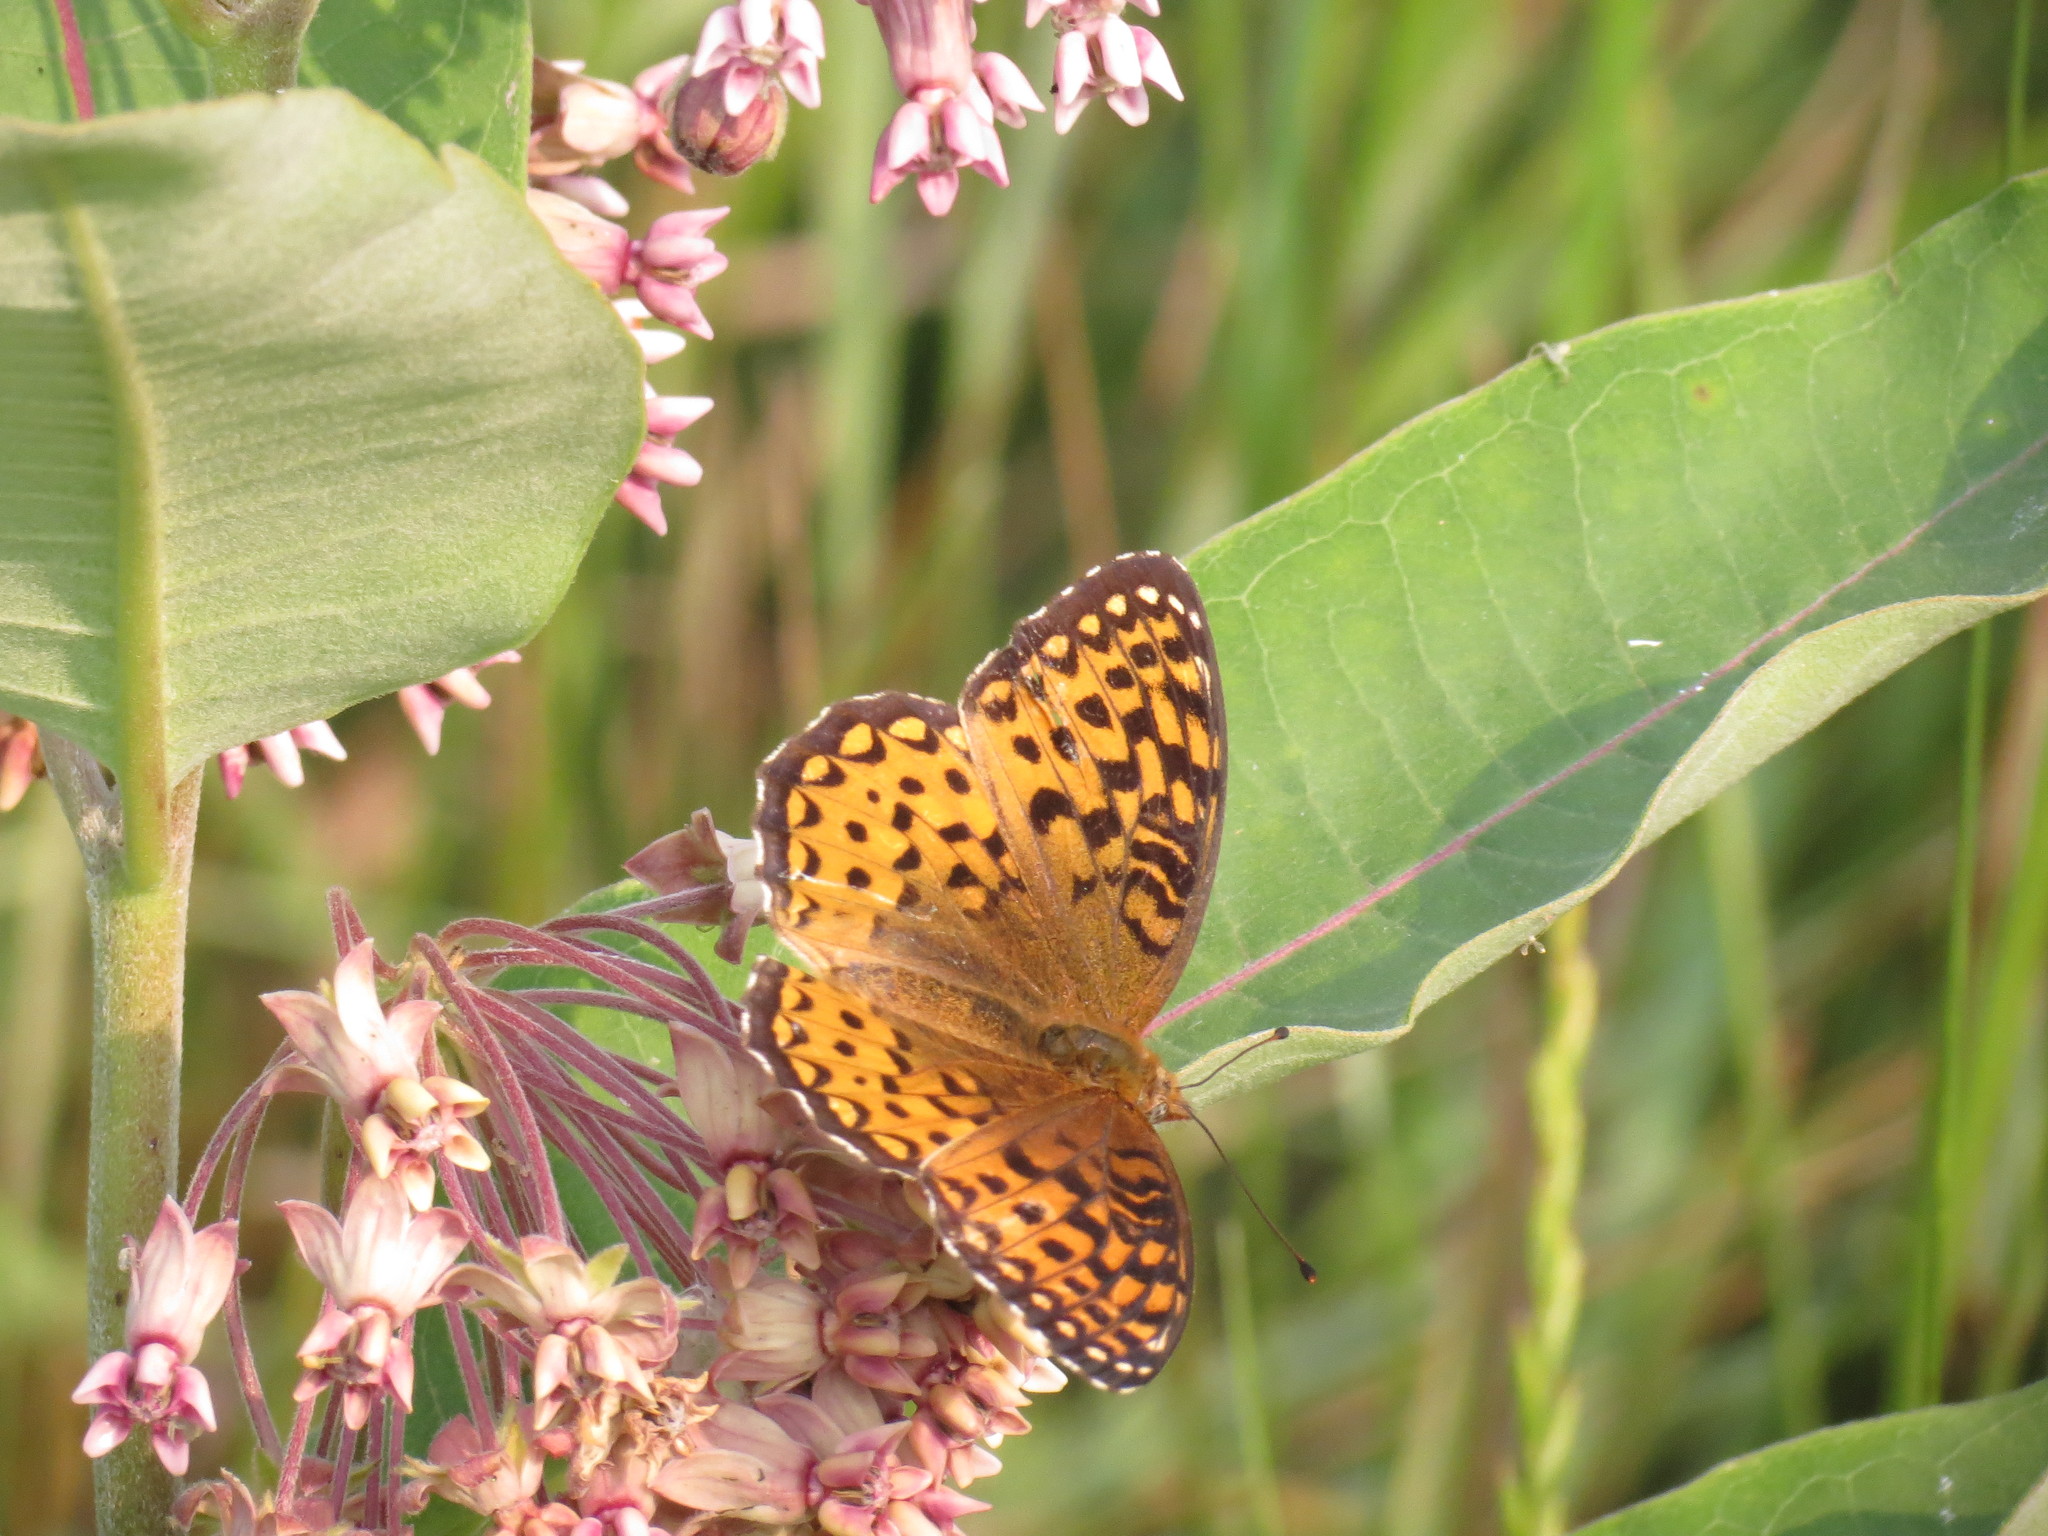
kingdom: Animalia
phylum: Arthropoda
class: Insecta
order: Lepidoptera
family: Nymphalidae
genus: Speyeria
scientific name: Speyeria atlantis
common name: Atlantis fritillary
